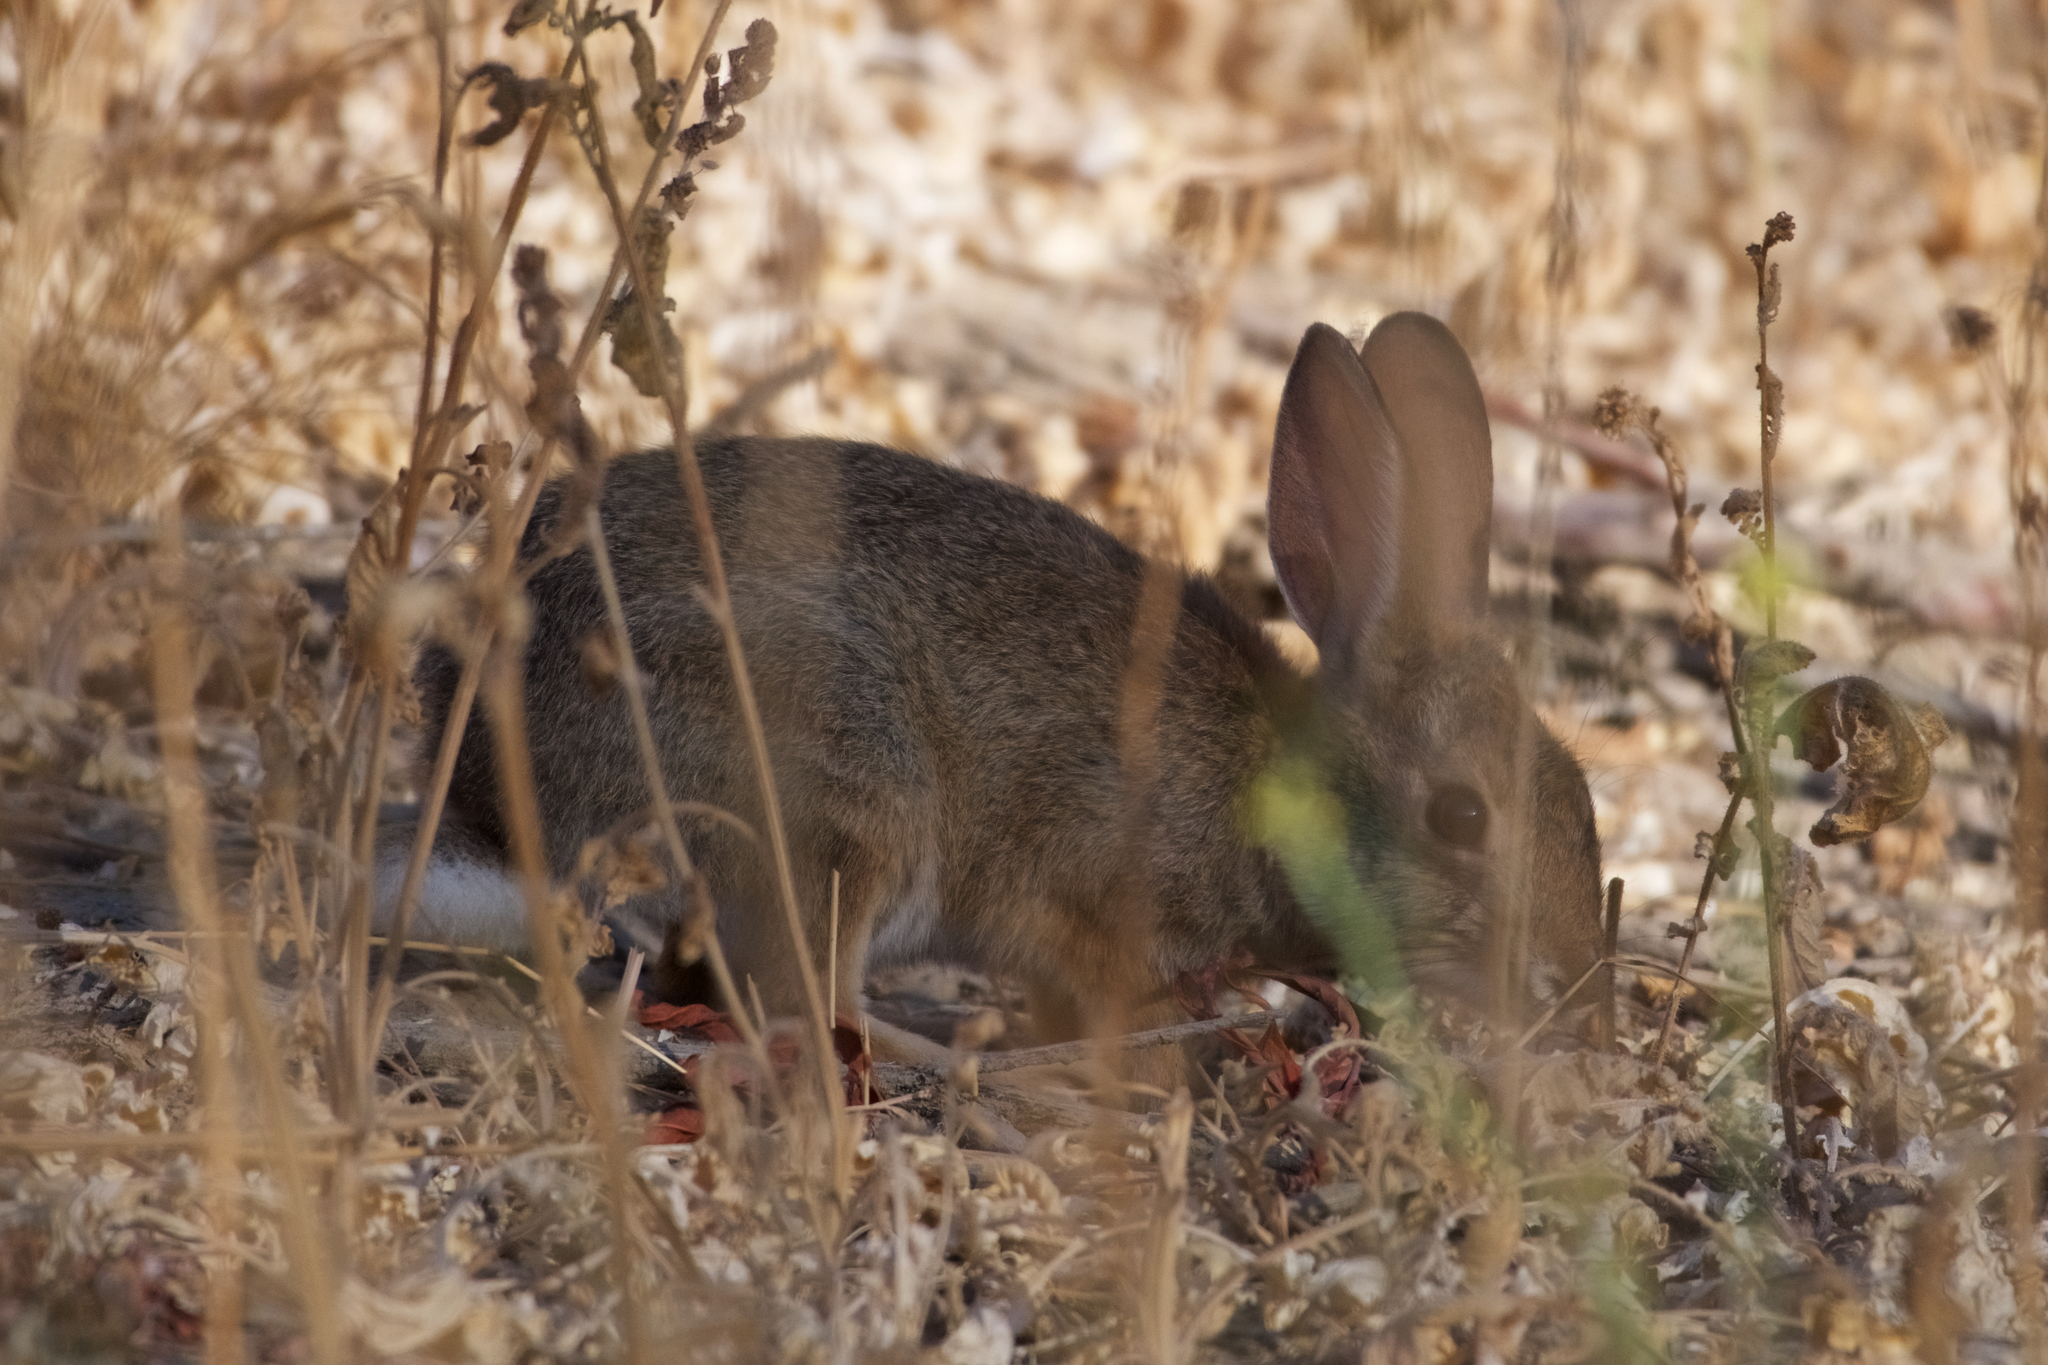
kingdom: Animalia
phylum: Chordata
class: Mammalia
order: Lagomorpha
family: Leporidae
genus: Sylvilagus
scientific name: Sylvilagus audubonii
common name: Desert cottontail
